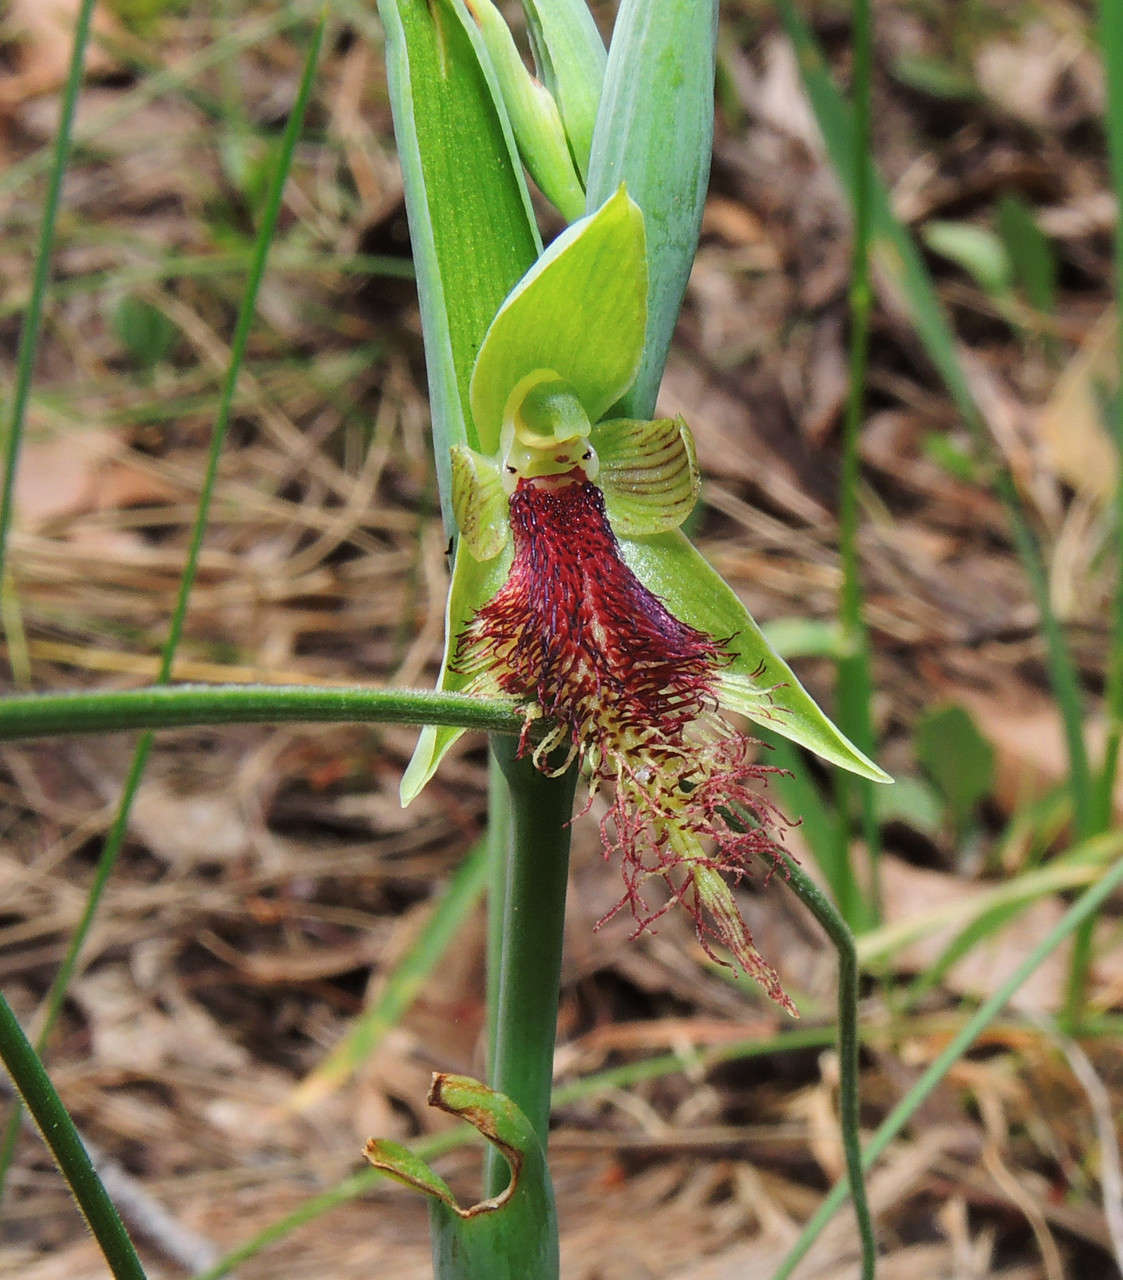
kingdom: Plantae
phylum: Tracheophyta
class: Liliopsida
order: Asparagales
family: Orchidaceae
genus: Calochilus
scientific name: Calochilus robertsonii
